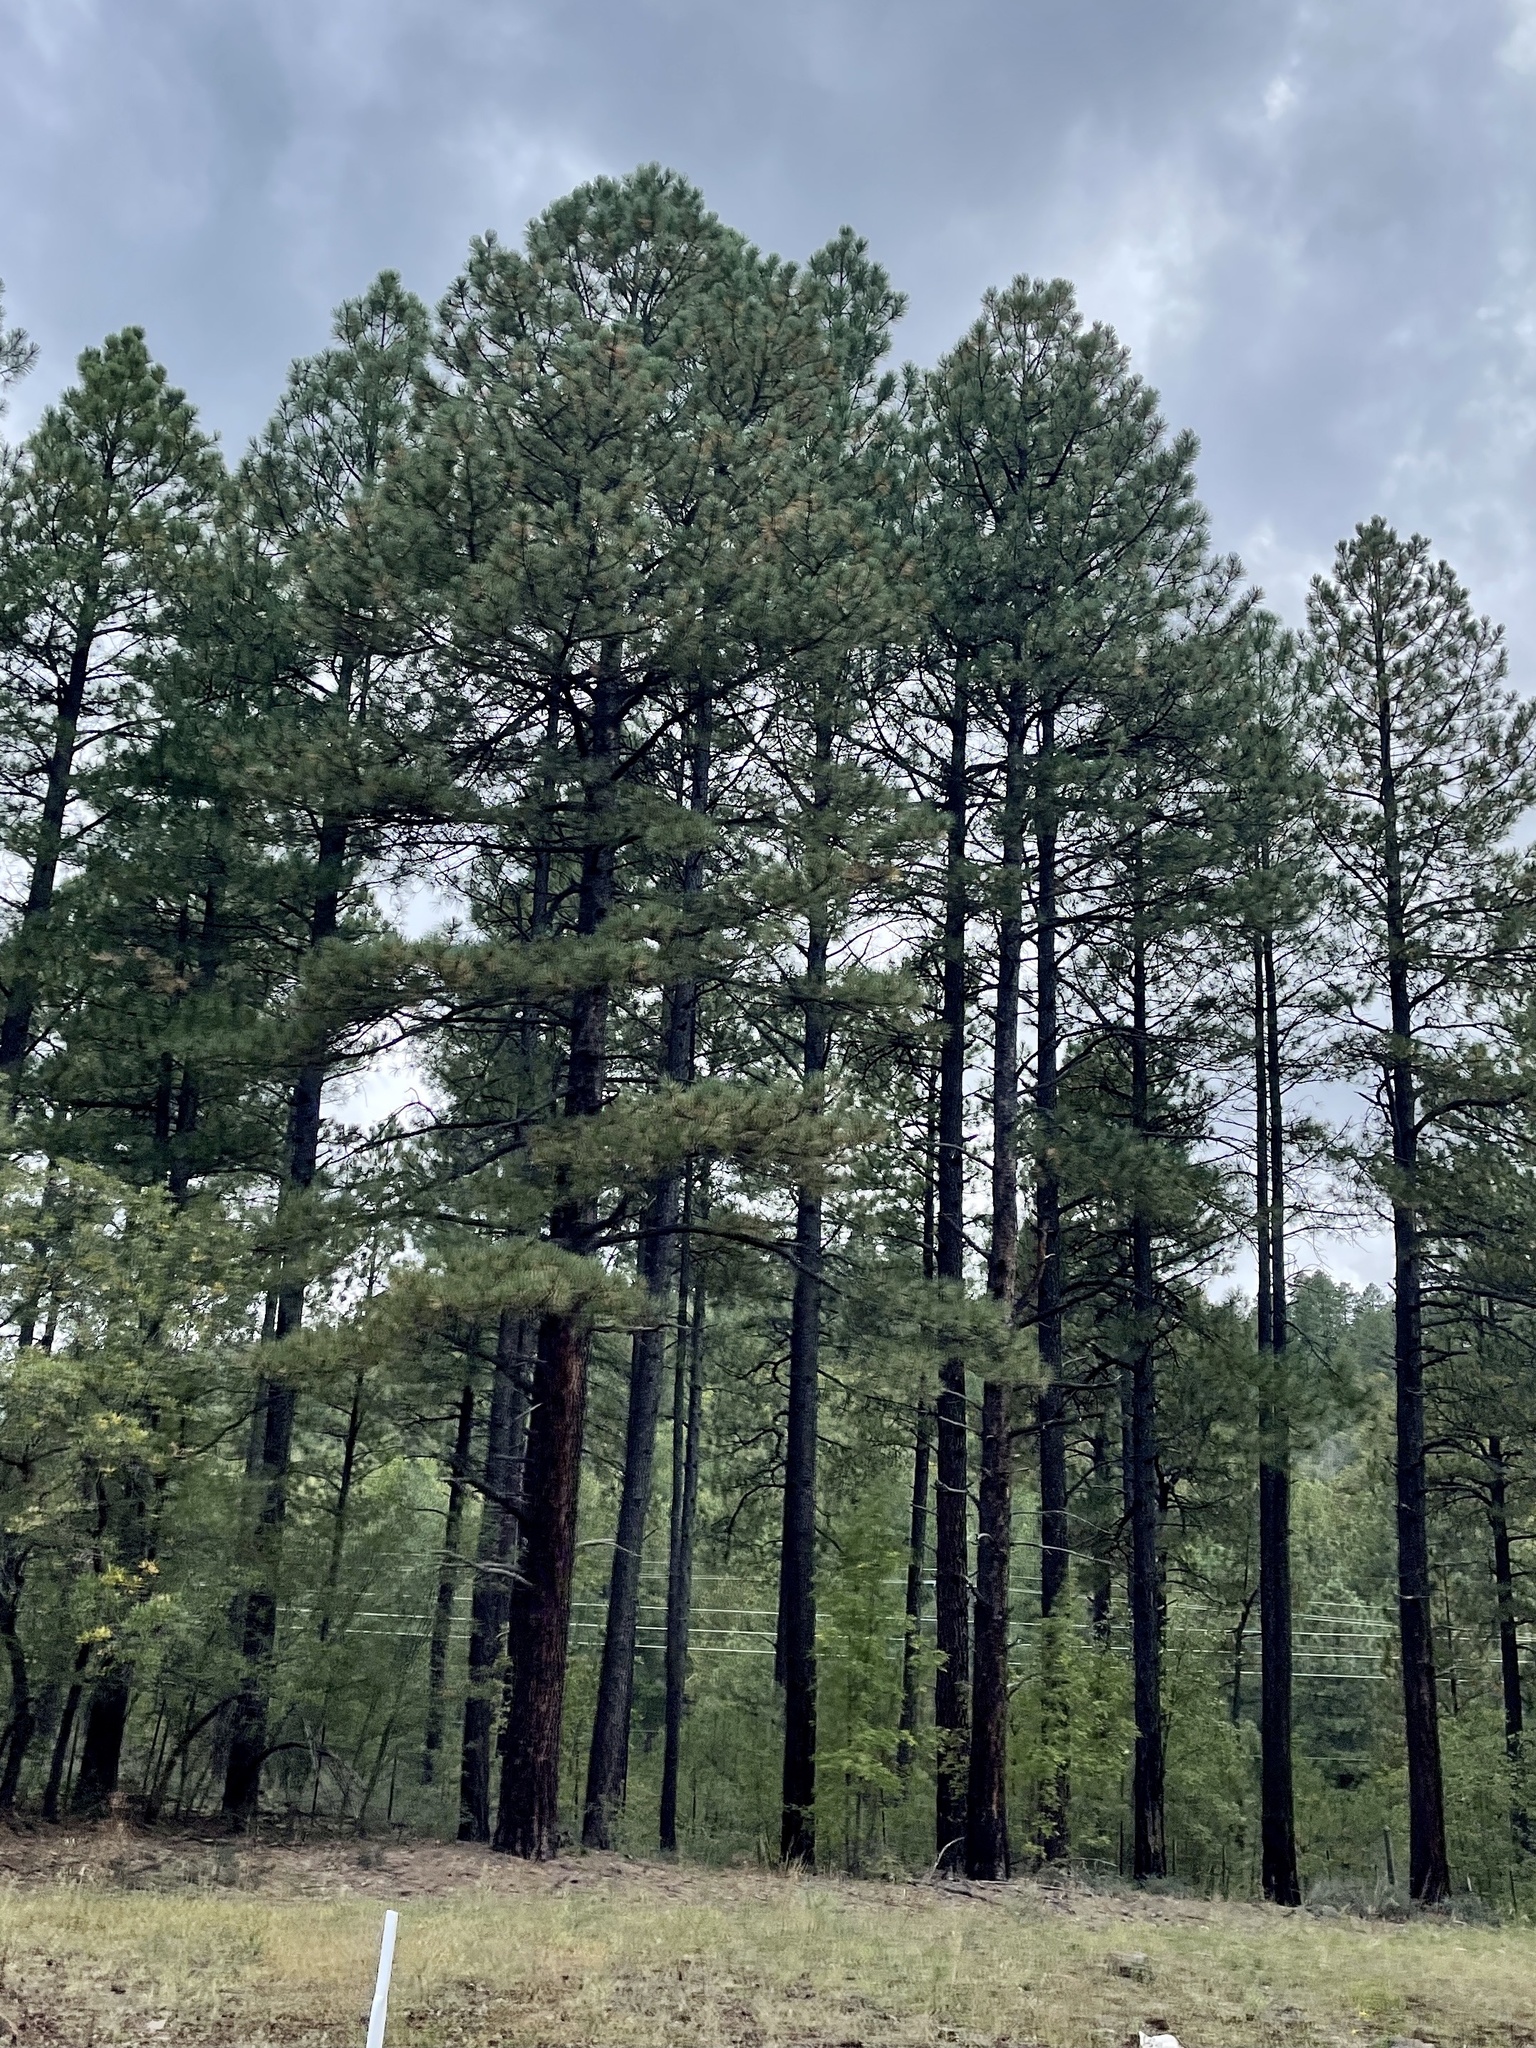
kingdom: Plantae
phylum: Tracheophyta
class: Pinopsida
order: Pinales
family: Pinaceae
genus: Pinus
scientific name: Pinus ponderosa
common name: Western yellow-pine
